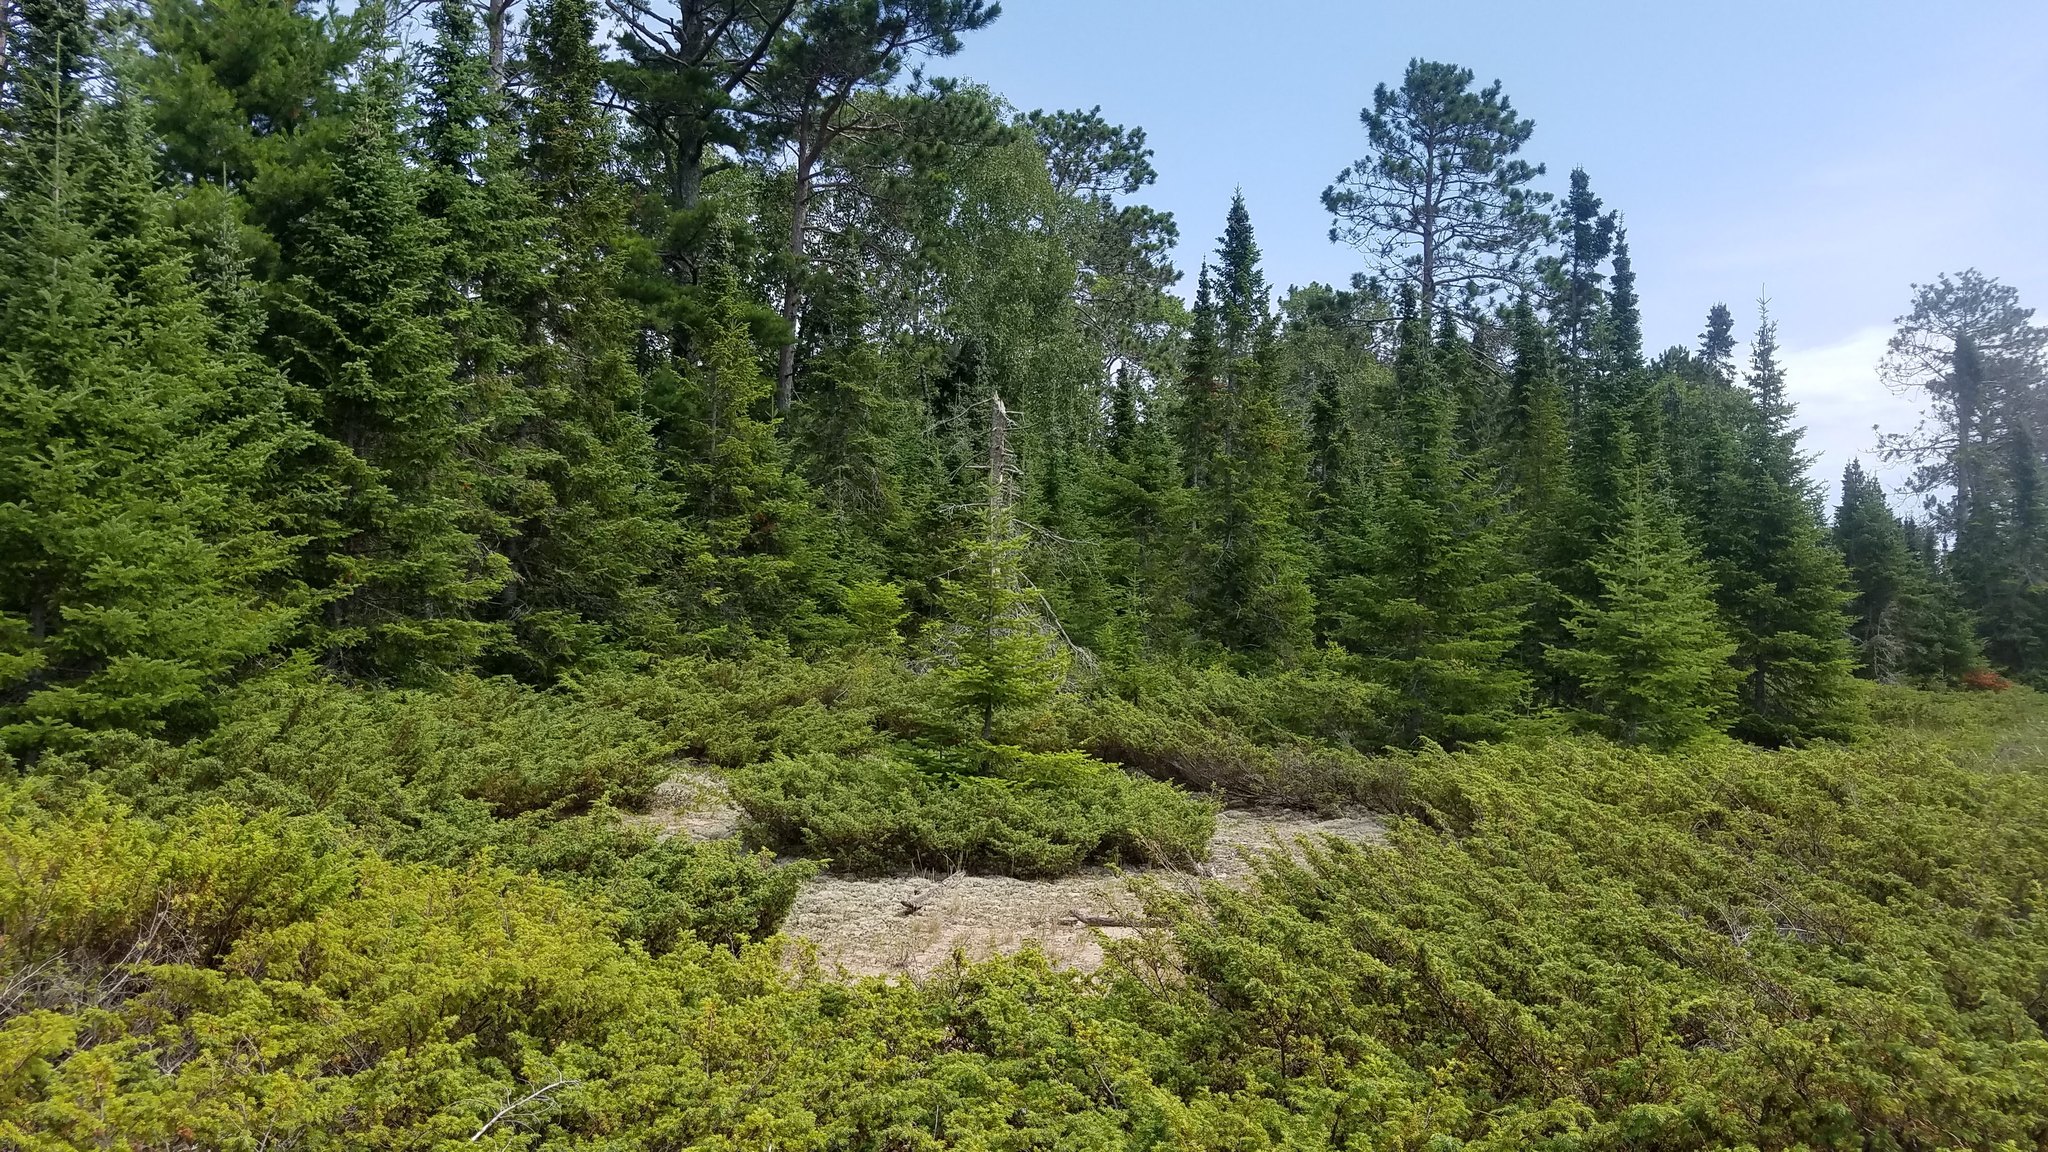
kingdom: Plantae
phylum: Tracheophyta
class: Pinopsida
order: Pinales
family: Cupressaceae
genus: Juniperus
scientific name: Juniperus communis
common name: Common juniper
